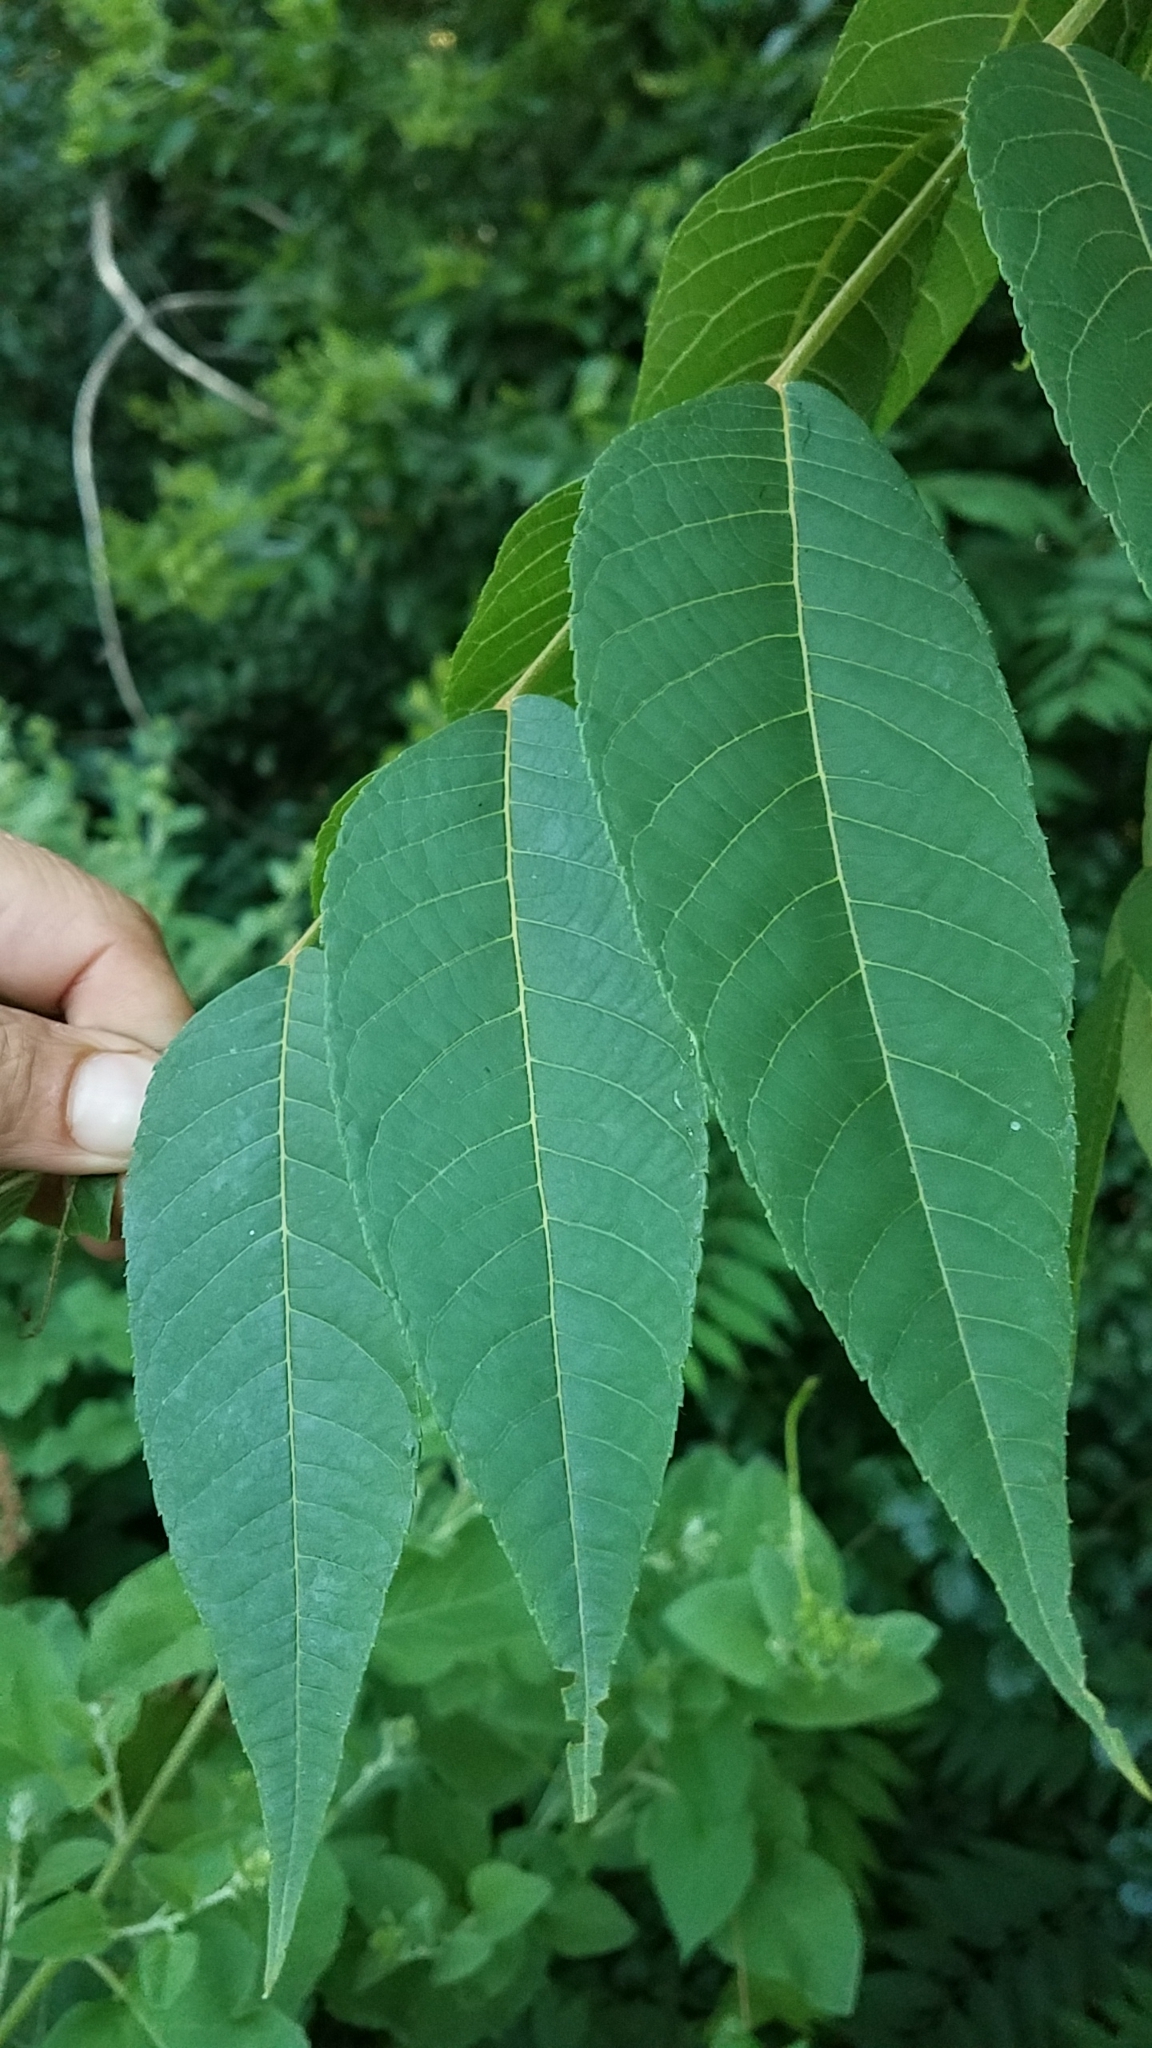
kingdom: Plantae
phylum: Tracheophyta
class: Magnoliopsida
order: Fagales
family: Juglandaceae
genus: Juglans
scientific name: Juglans nigra
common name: Black walnut
